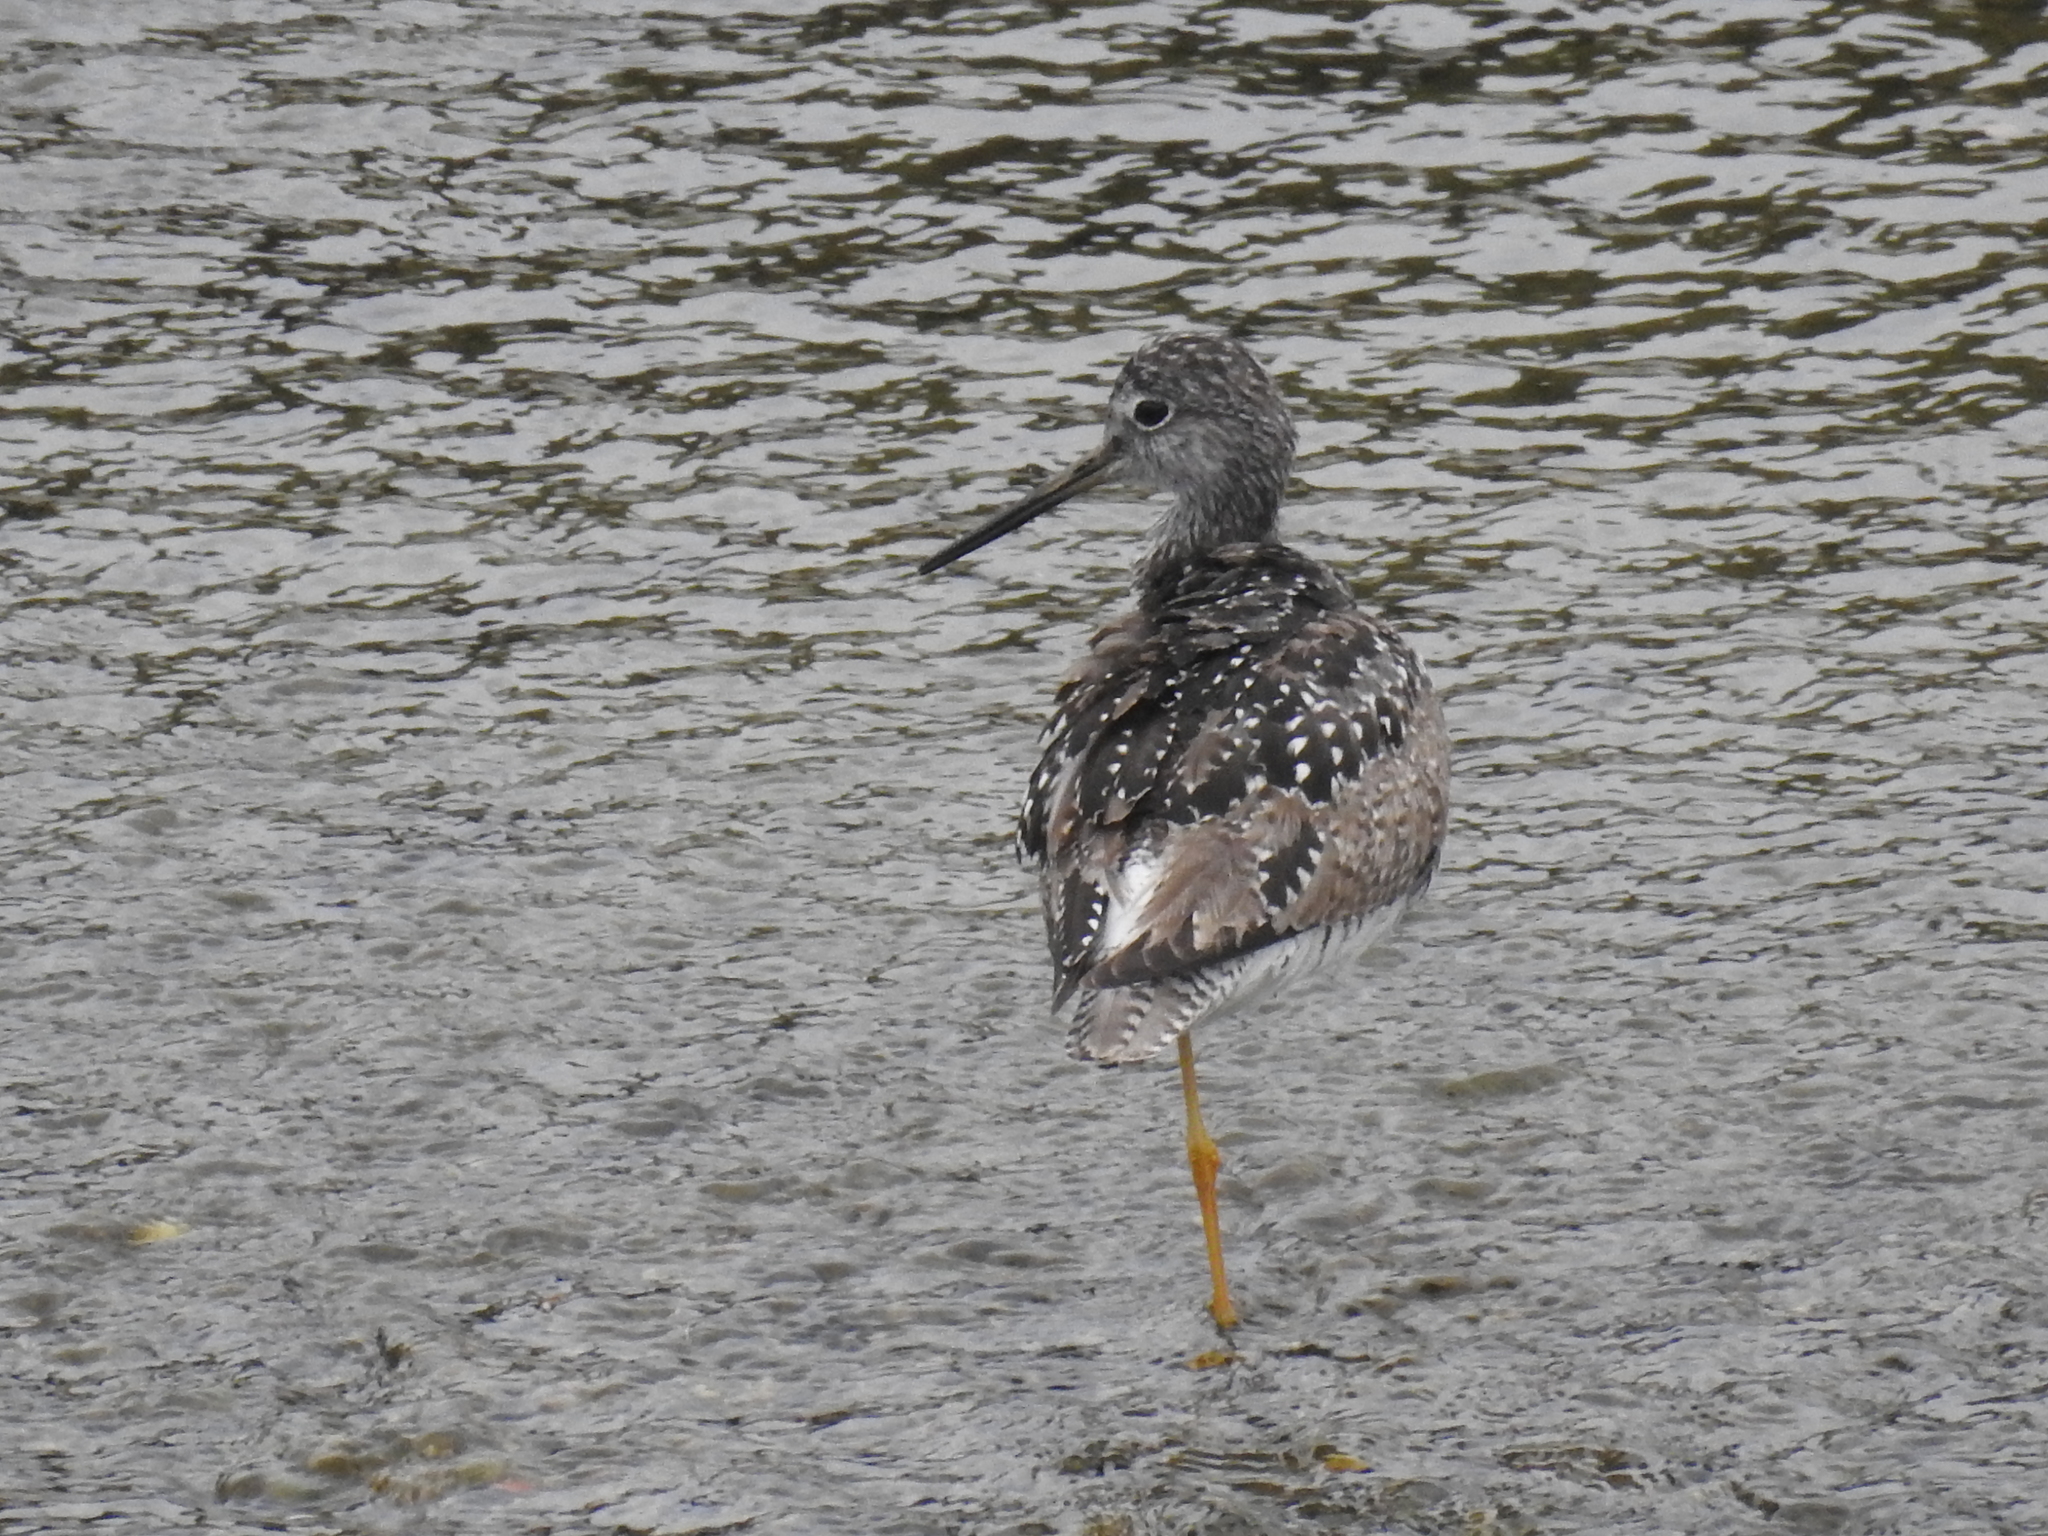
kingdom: Animalia
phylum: Chordata
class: Aves
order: Charadriiformes
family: Scolopacidae
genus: Tringa
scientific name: Tringa melanoleuca
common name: Greater yellowlegs
